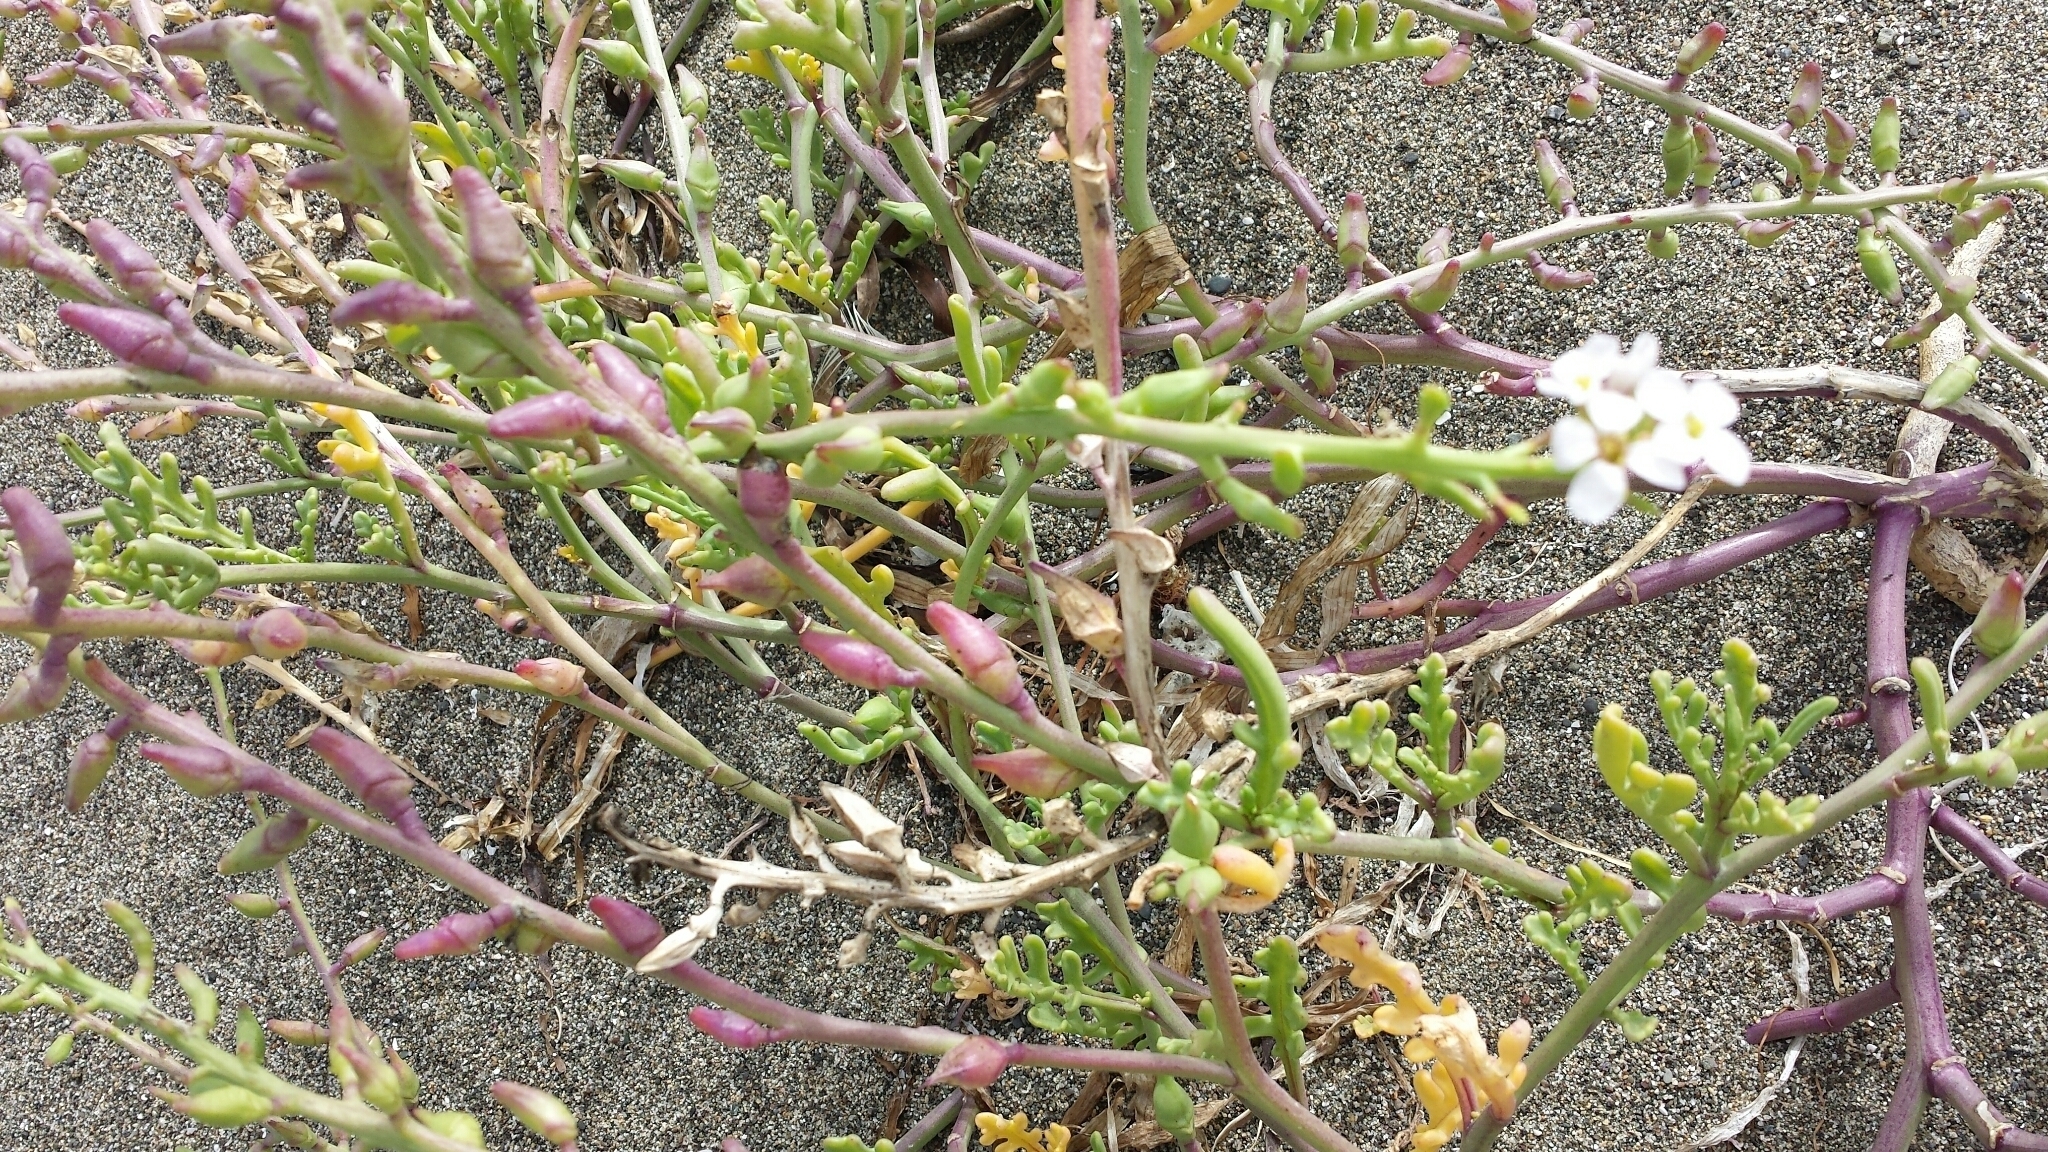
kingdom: Plantae
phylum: Tracheophyta
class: Magnoliopsida
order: Brassicales
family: Brassicaceae
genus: Cakile
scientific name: Cakile maritima
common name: Sea rocket
